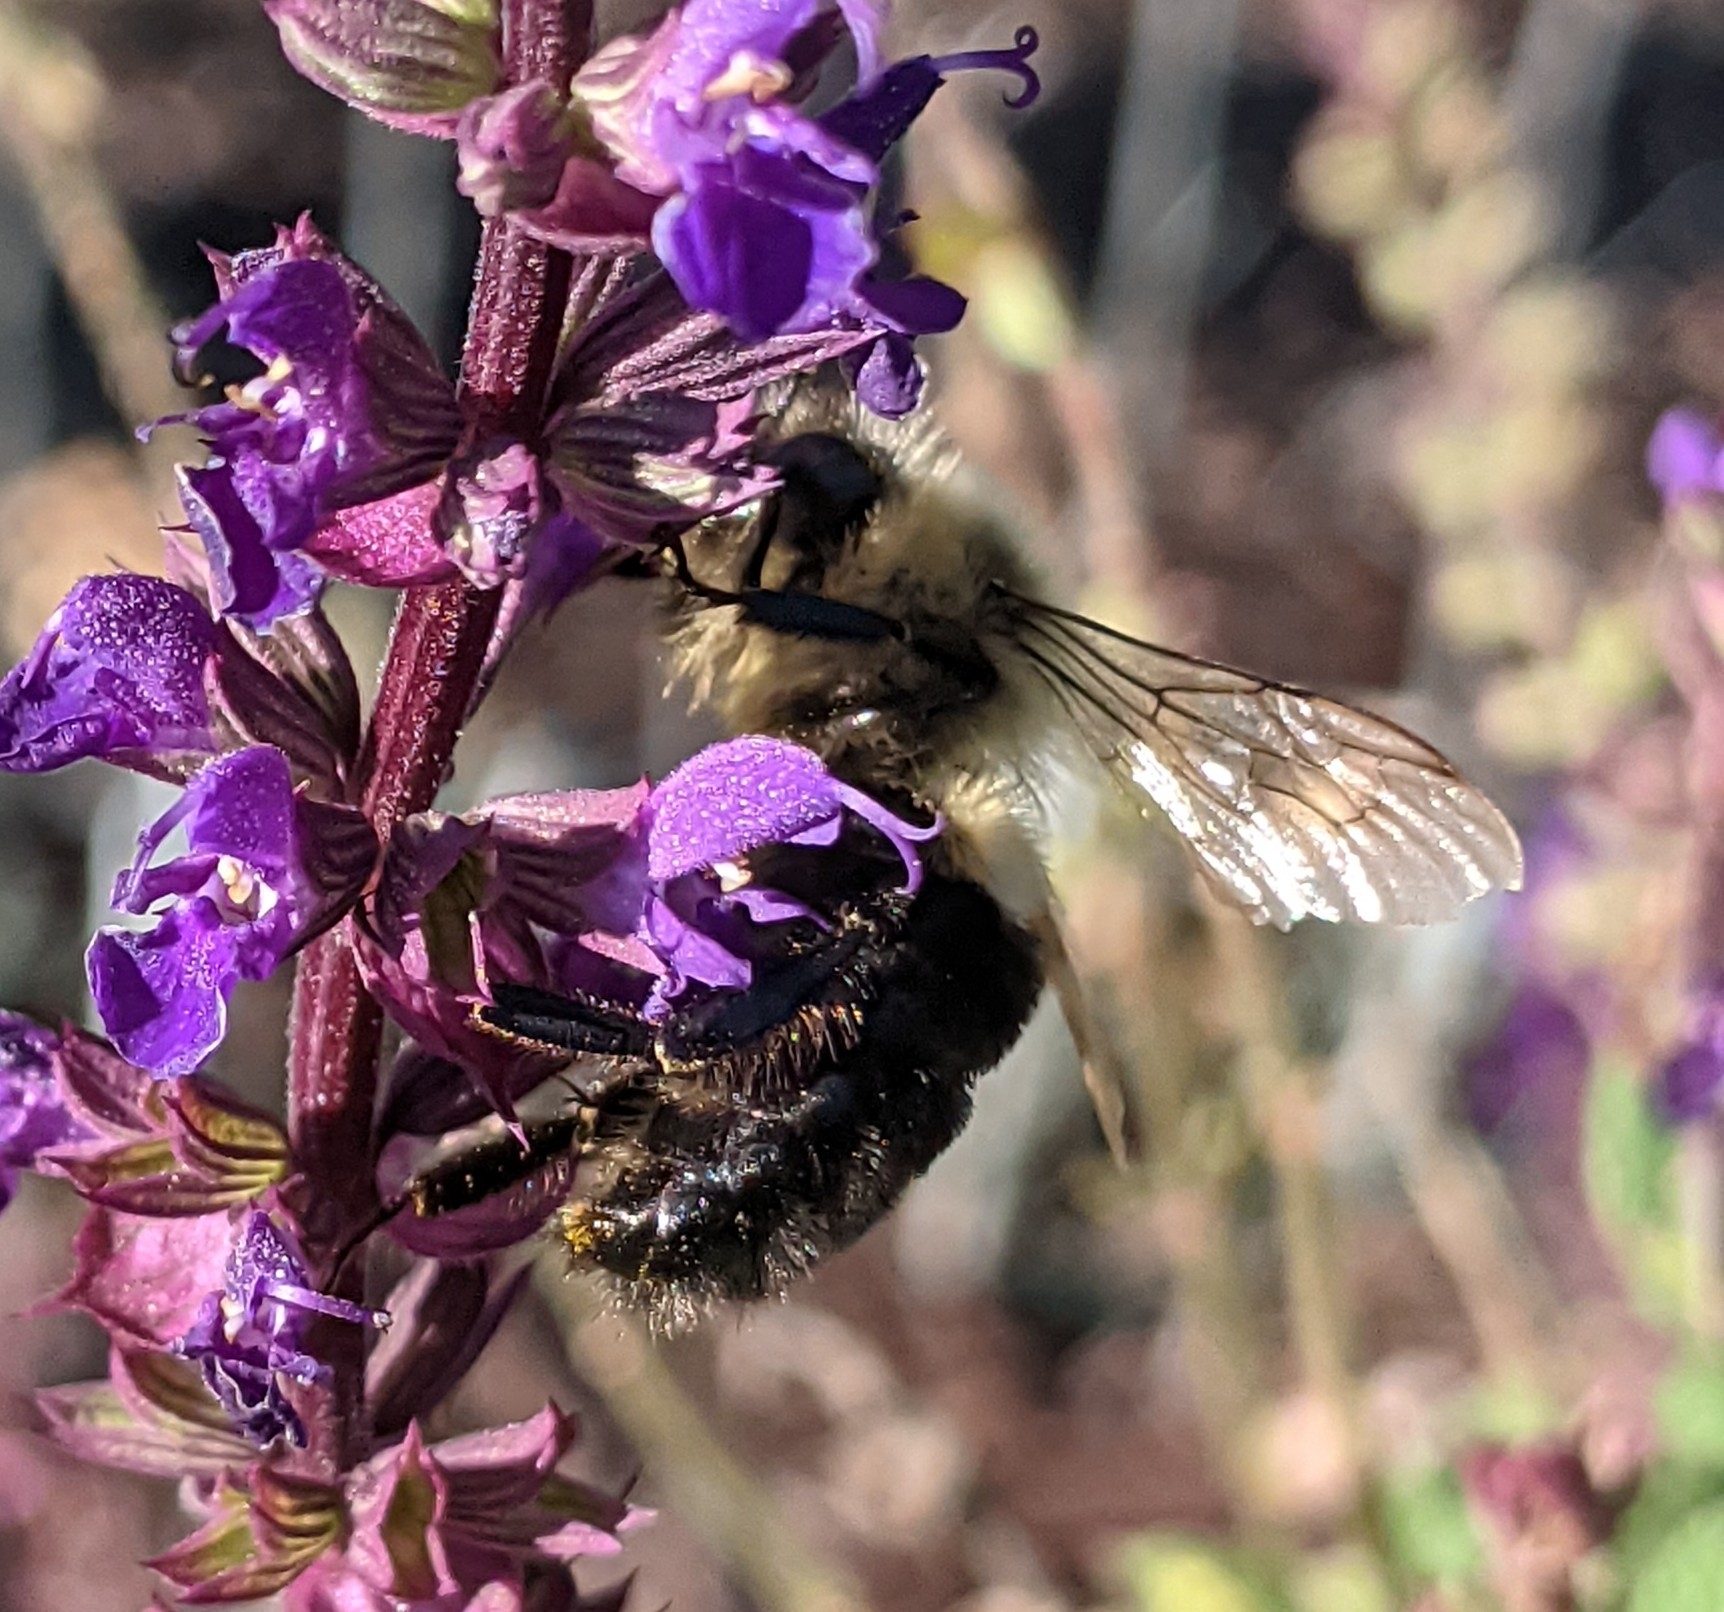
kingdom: Animalia
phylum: Arthropoda
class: Insecta
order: Hymenoptera
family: Apidae
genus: Bombus
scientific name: Bombus impatiens
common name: Common eastern bumble bee
